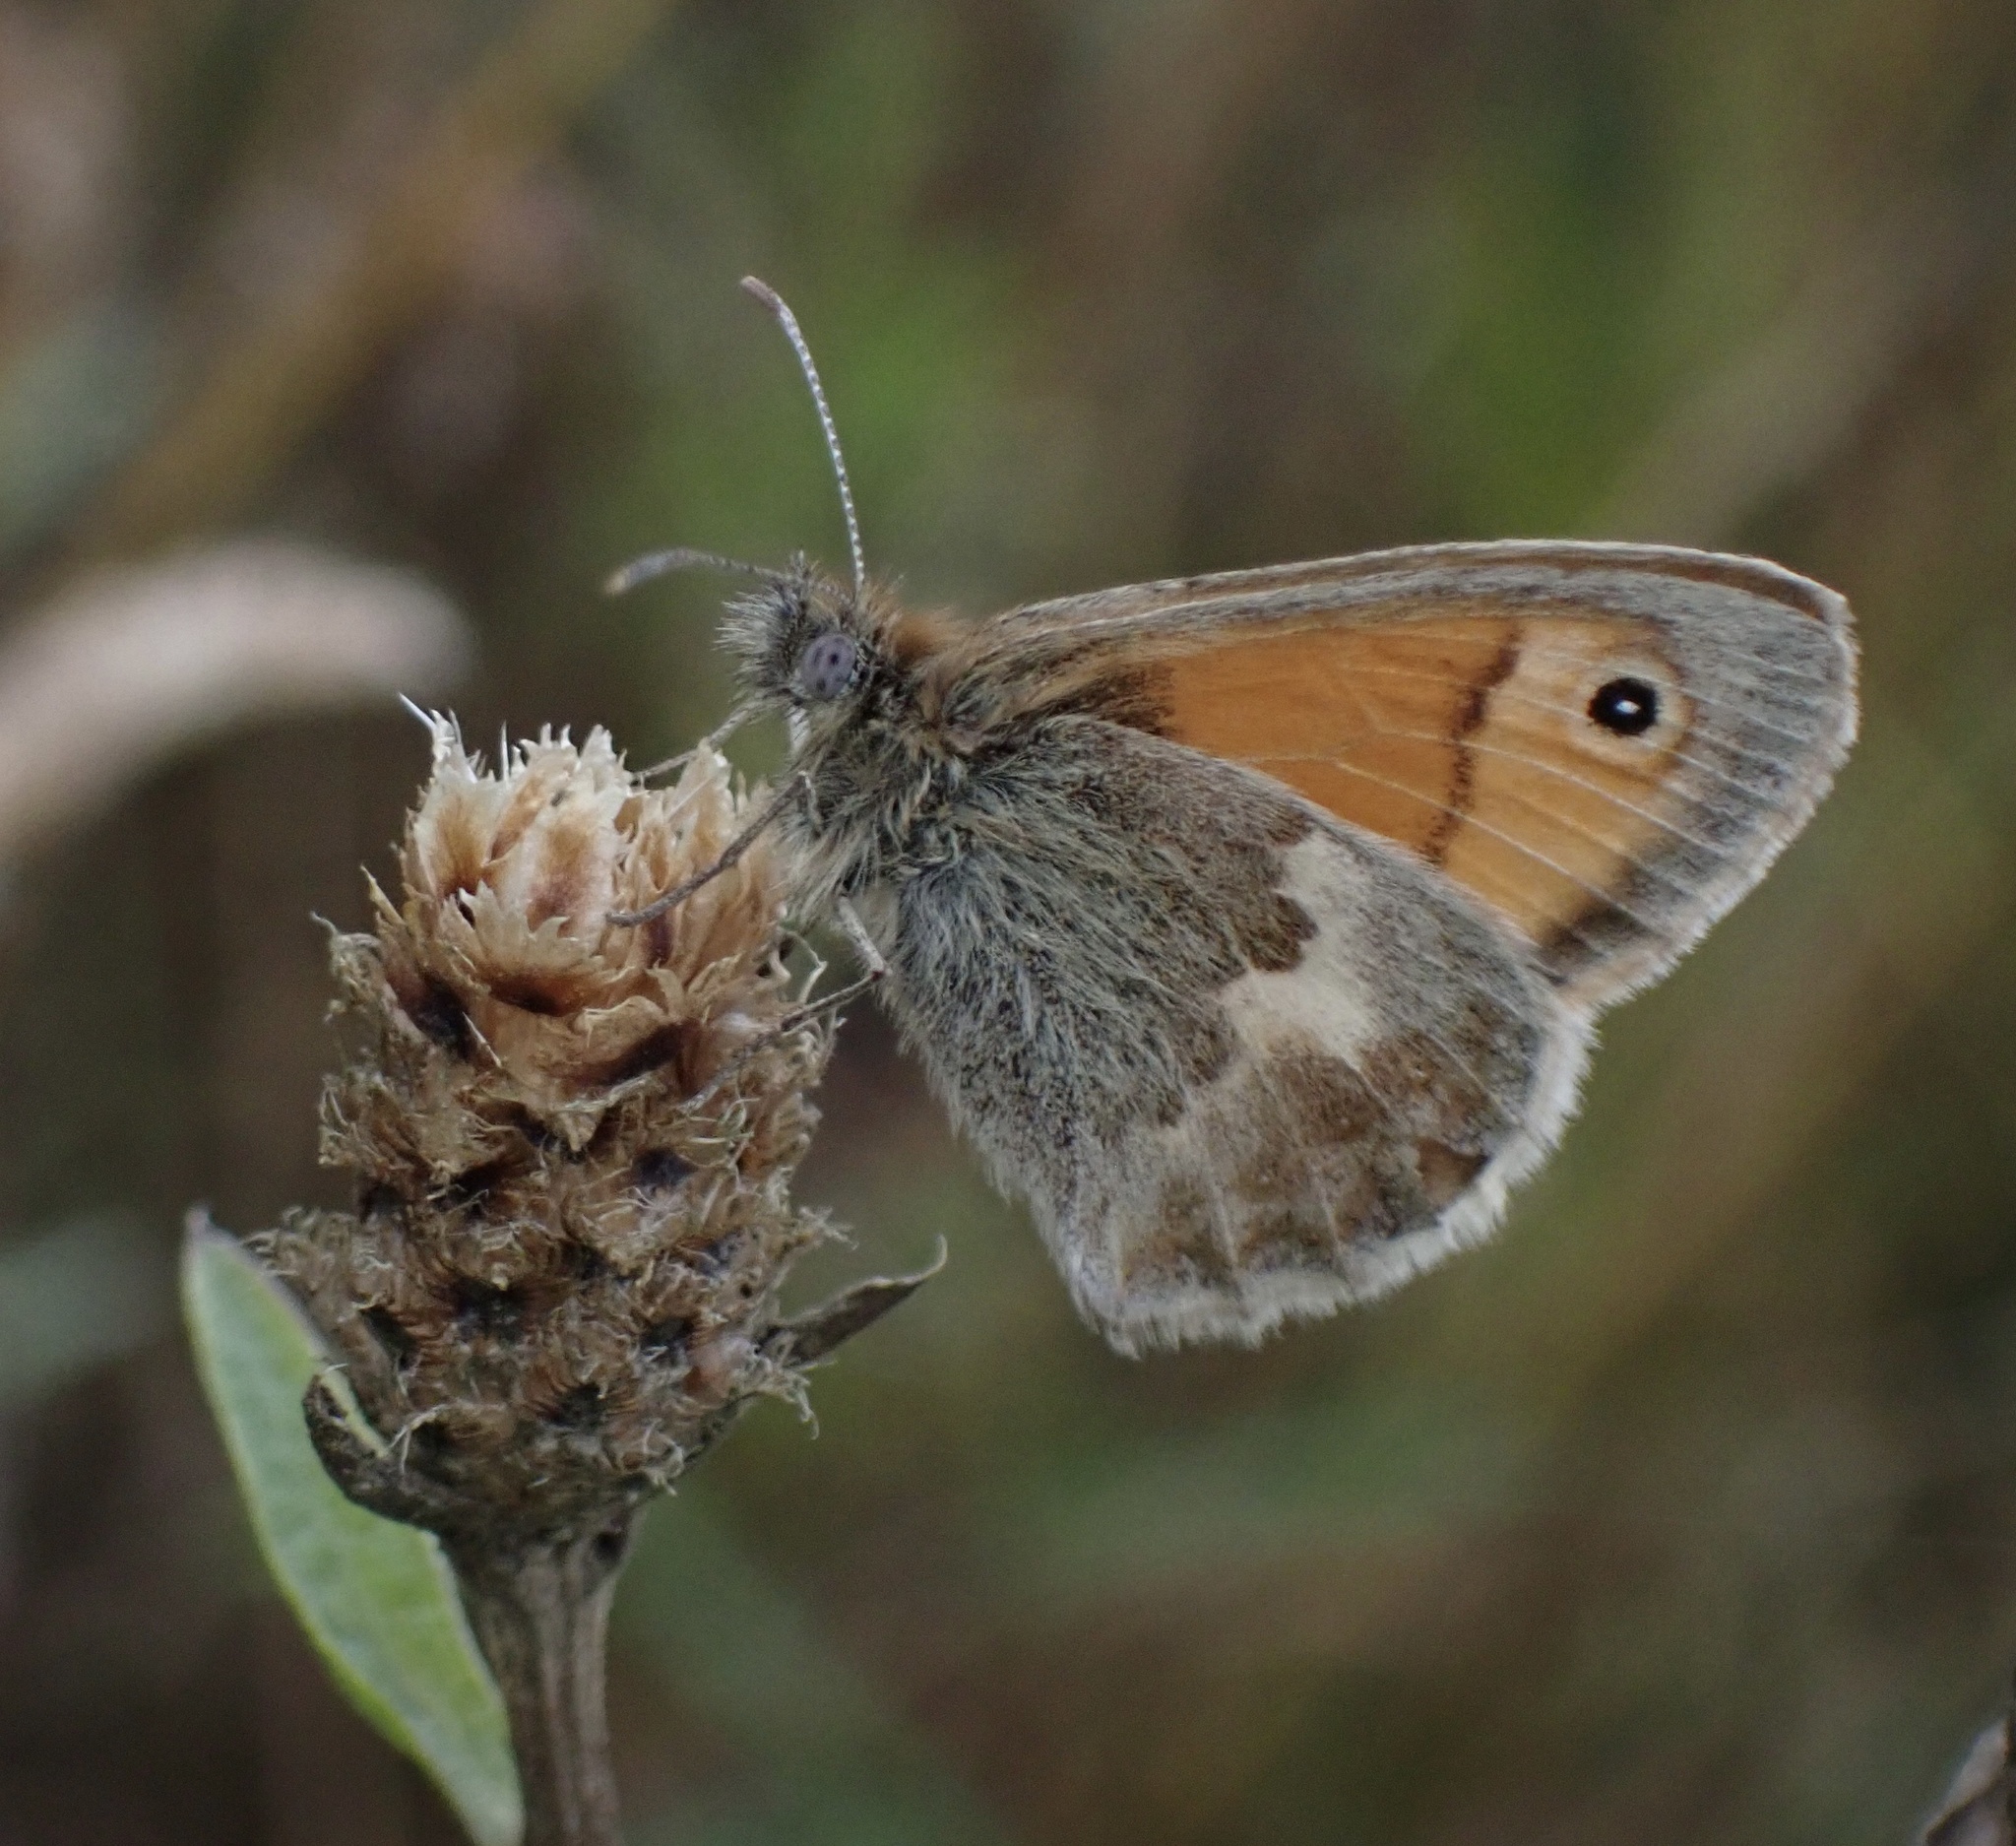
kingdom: Animalia
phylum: Arthropoda
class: Insecta
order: Lepidoptera
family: Nymphalidae
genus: Coenonympha
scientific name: Coenonympha pamphilus
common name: Small heath
